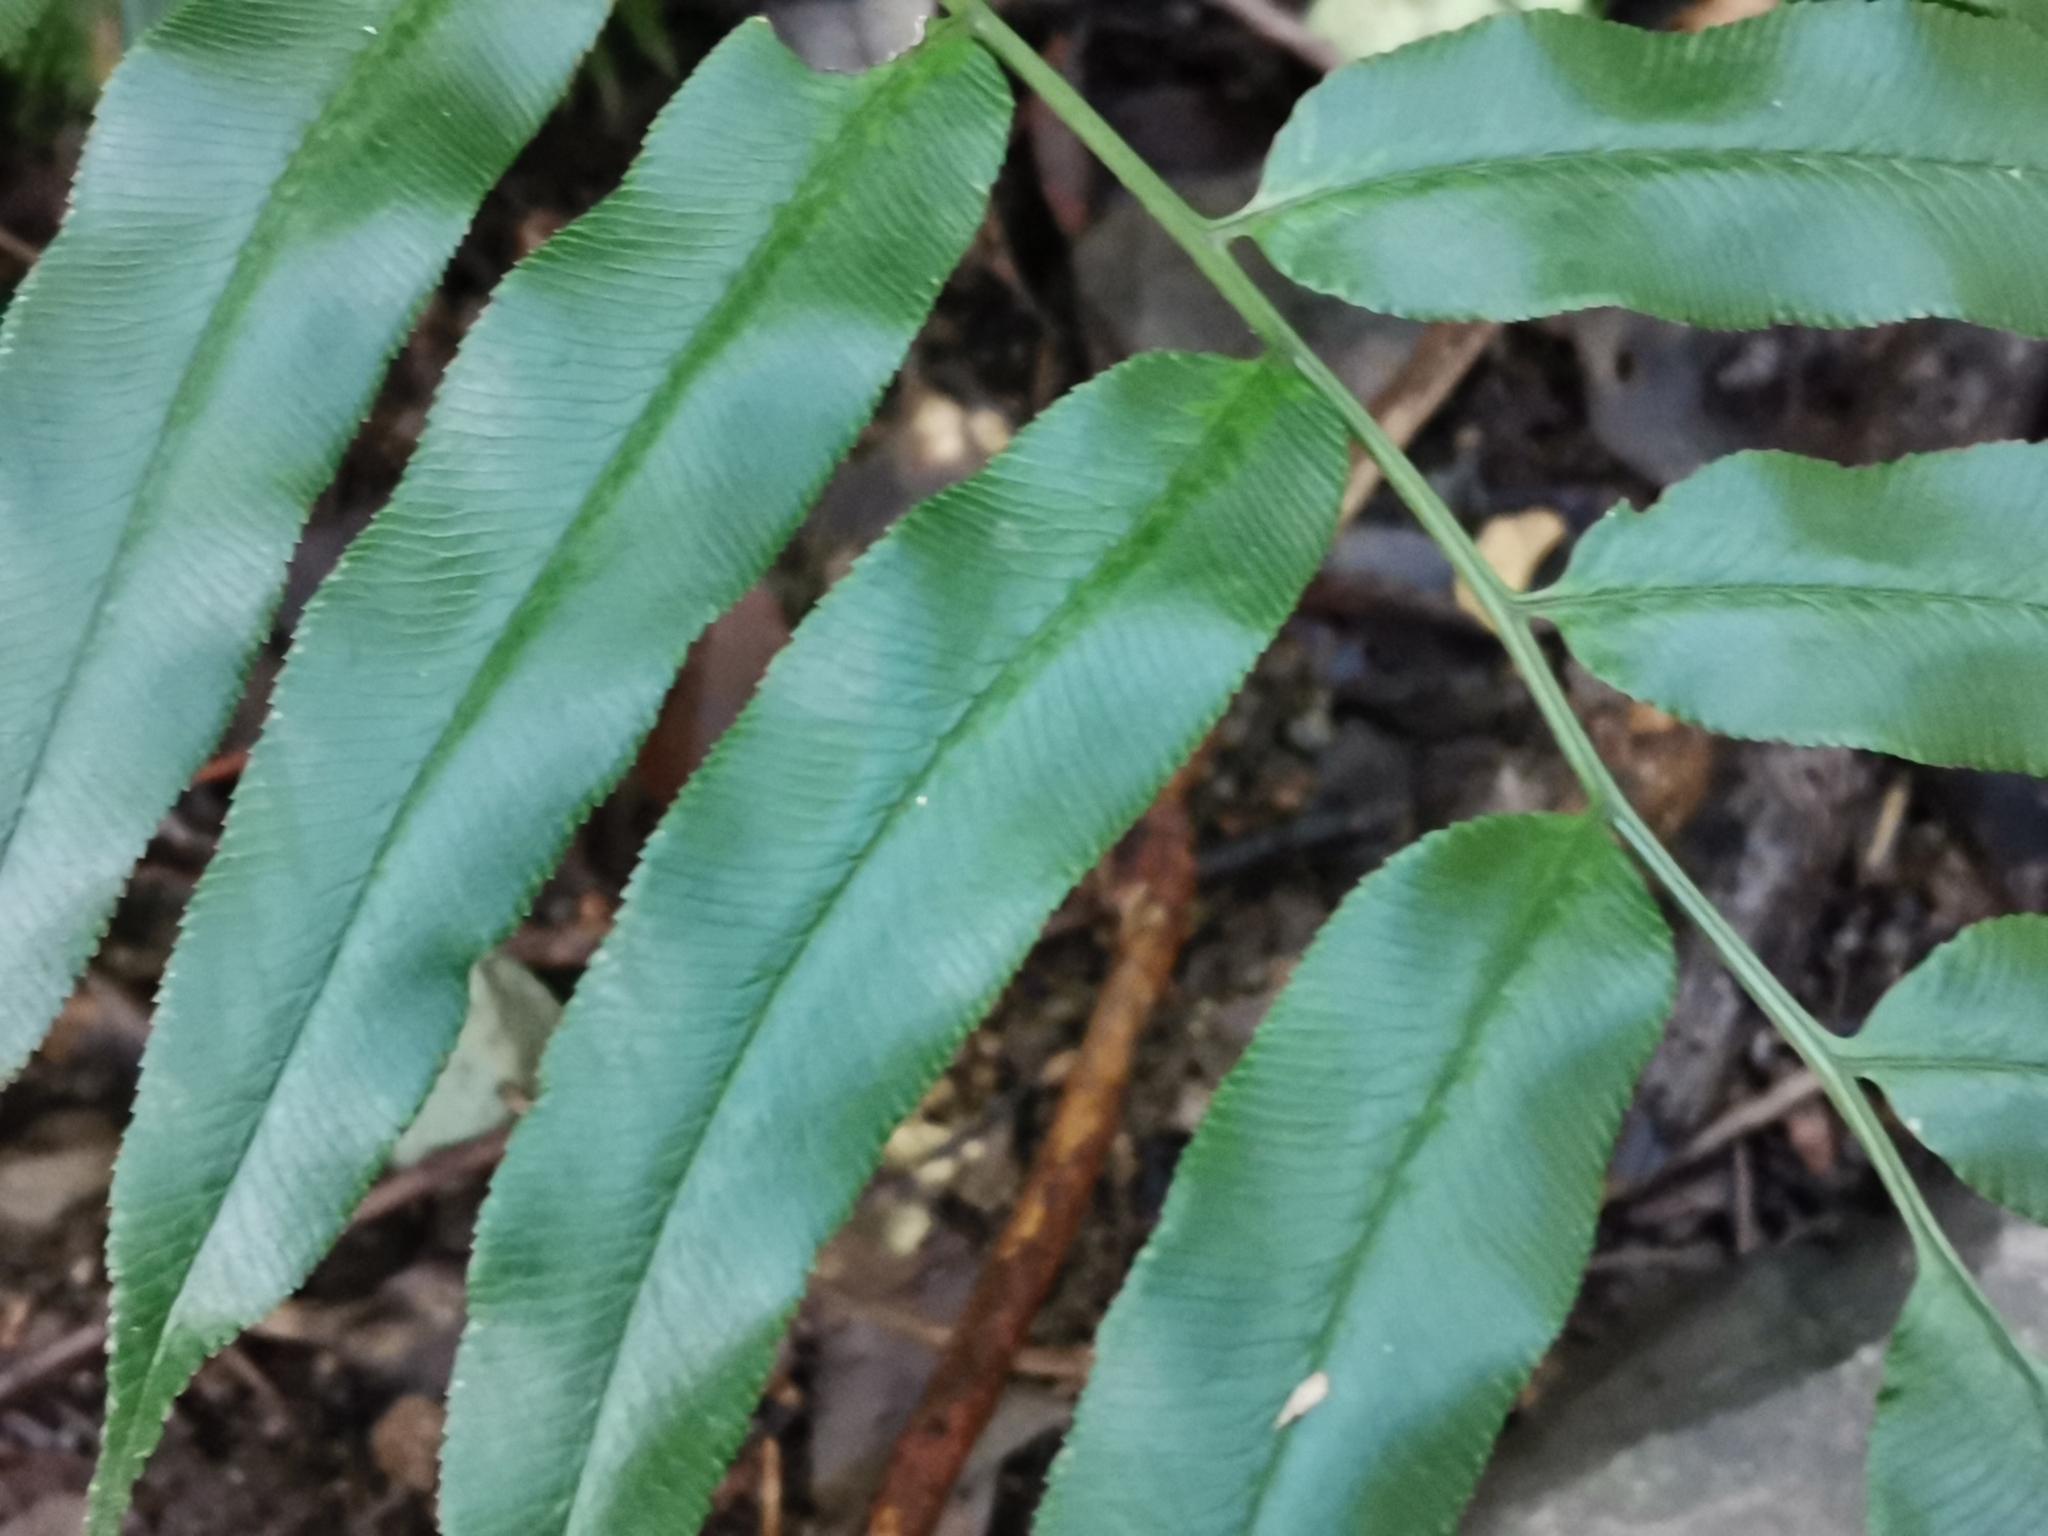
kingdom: Plantae
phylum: Tracheophyta
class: Polypodiopsida
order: Polypodiales
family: Pteridaceae
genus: Coniogramme
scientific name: Coniogramme intermedia
